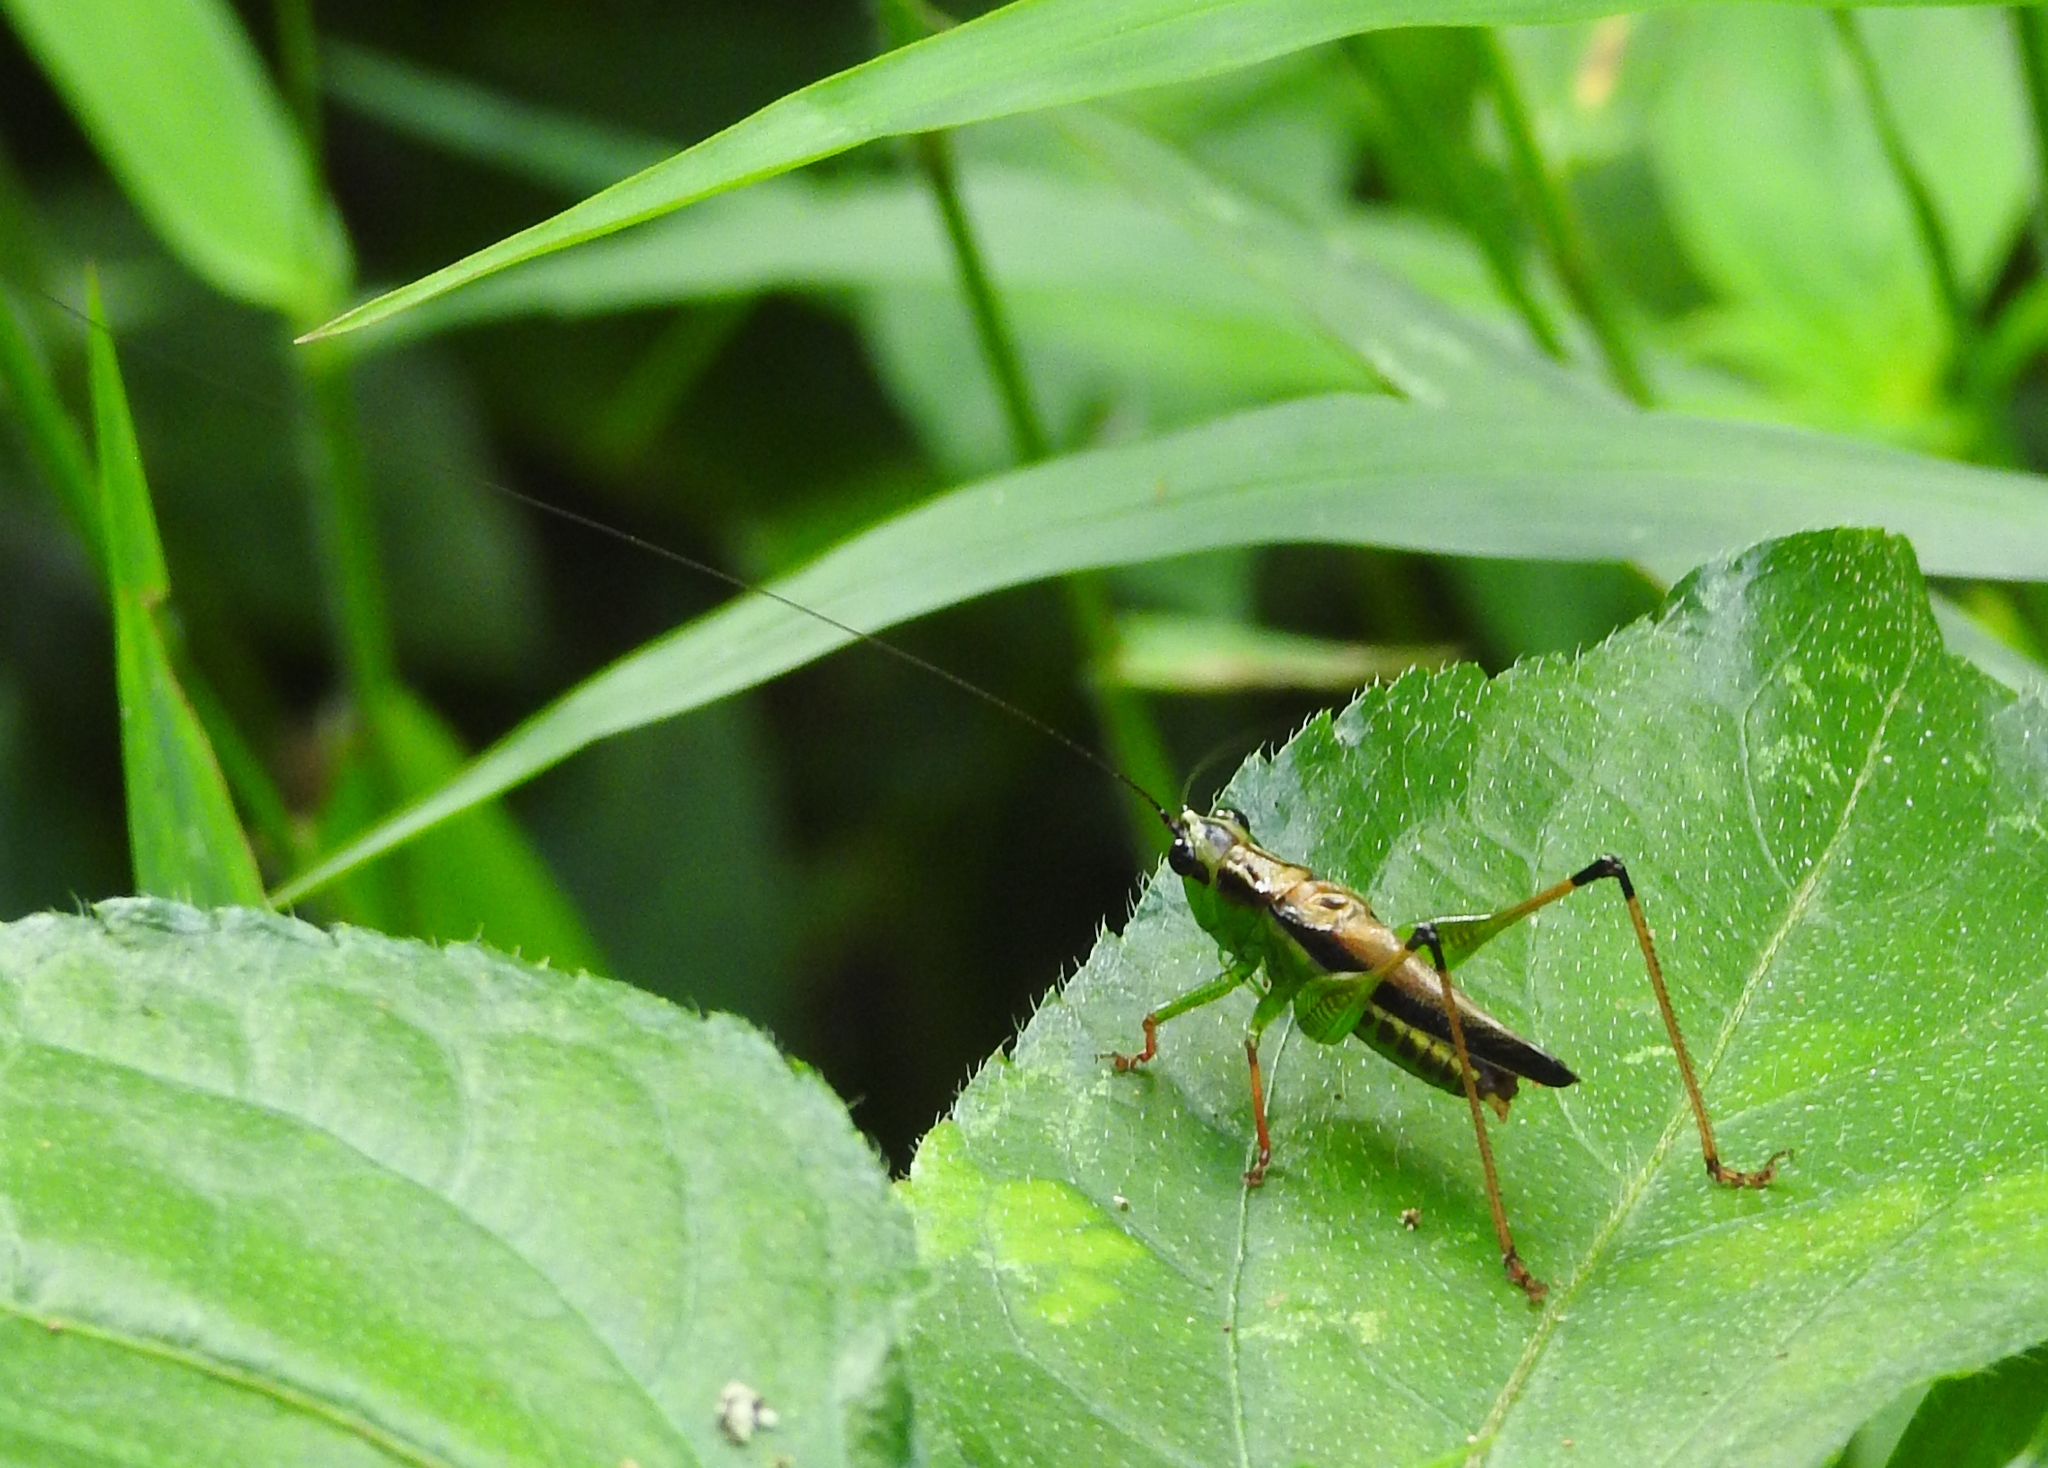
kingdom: Animalia
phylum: Arthropoda
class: Insecta
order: Orthoptera
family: Tettigoniidae
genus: Conocephalus
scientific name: Conocephalus melaenus
